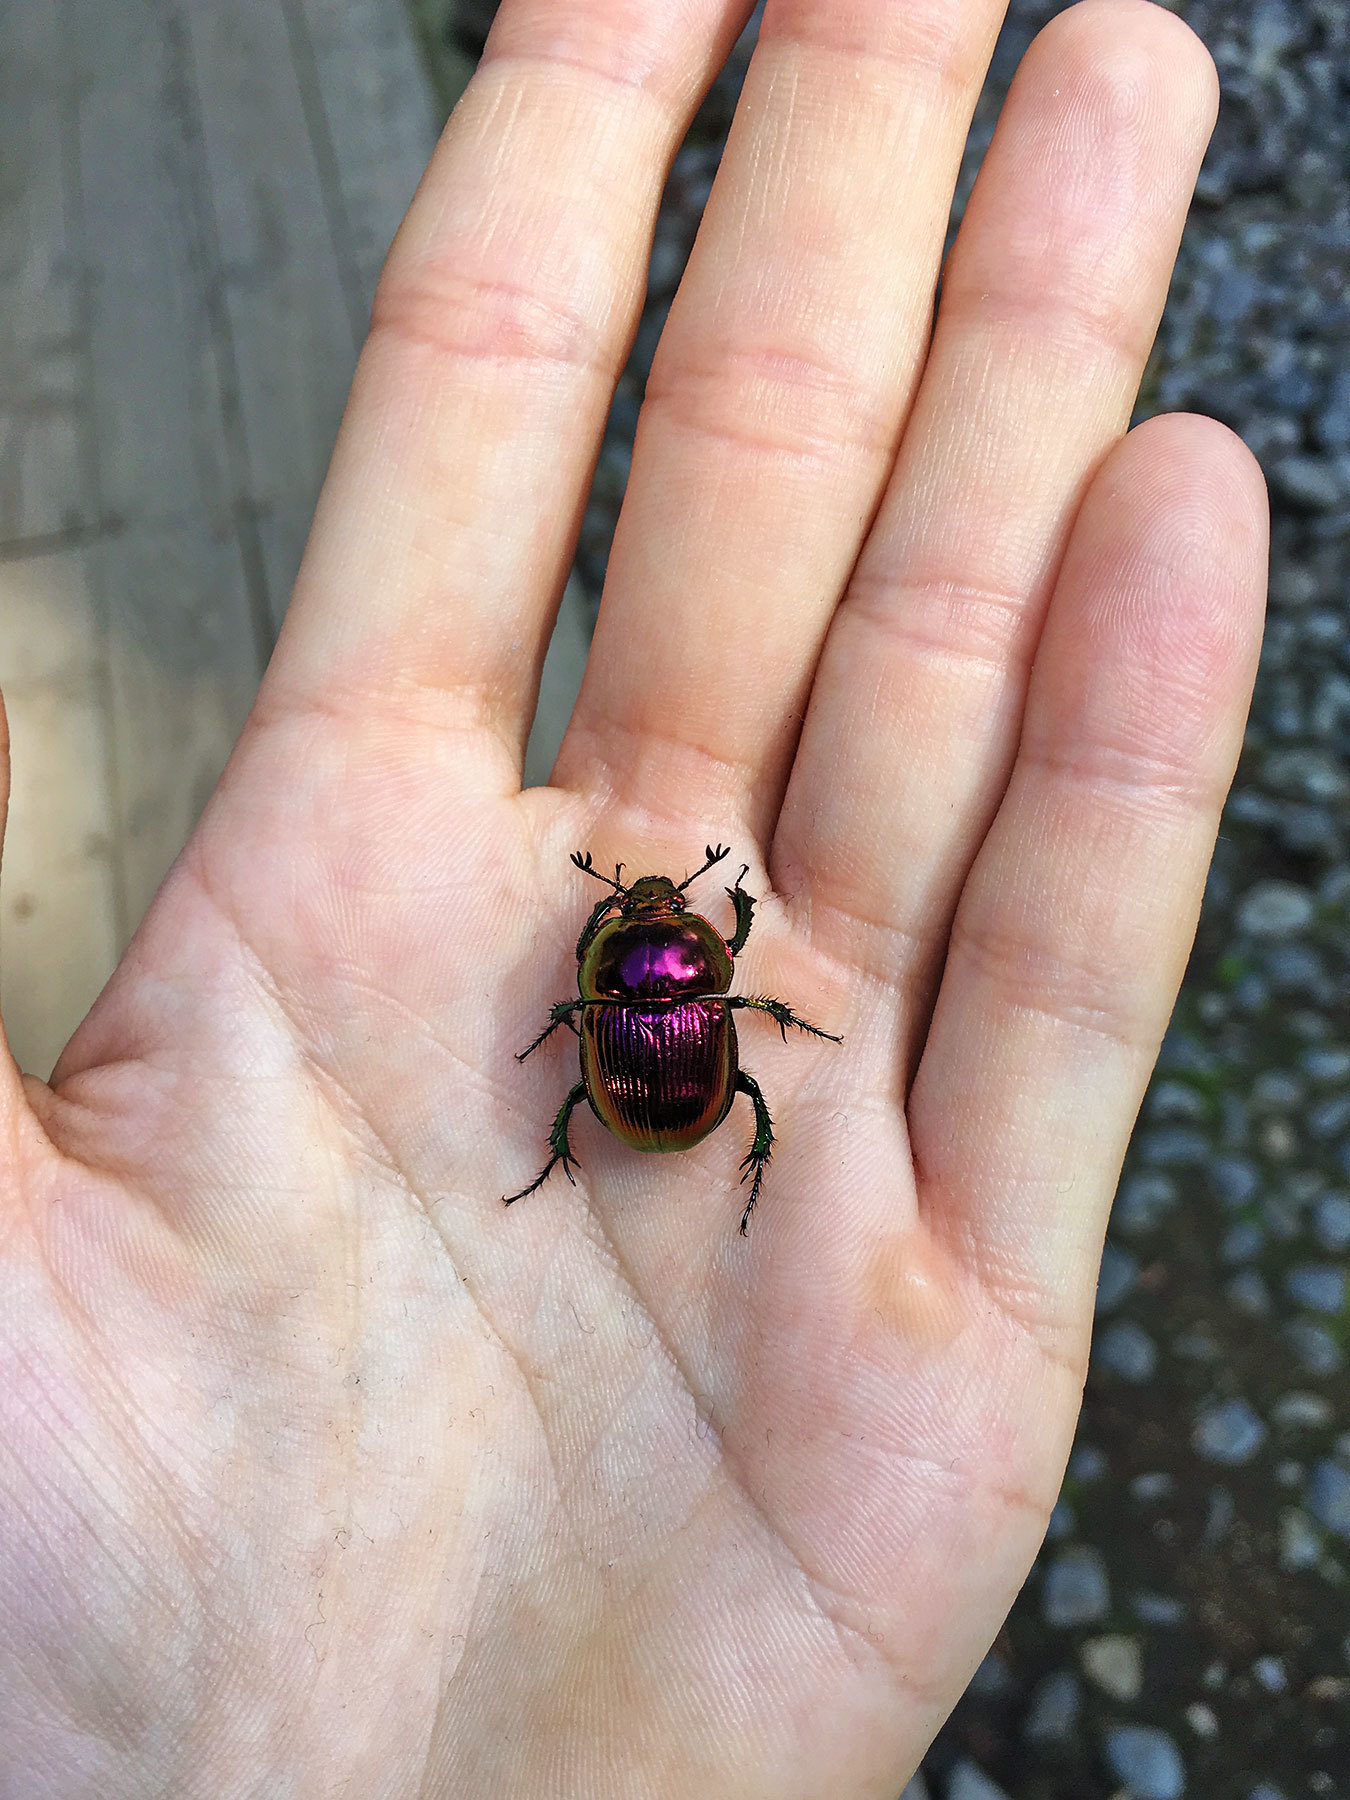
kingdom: Animalia
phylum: Arthropoda
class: Insecta
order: Coleoptera
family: Geotrupidae
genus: Phelotrupes
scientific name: Phelotrupes auratus
